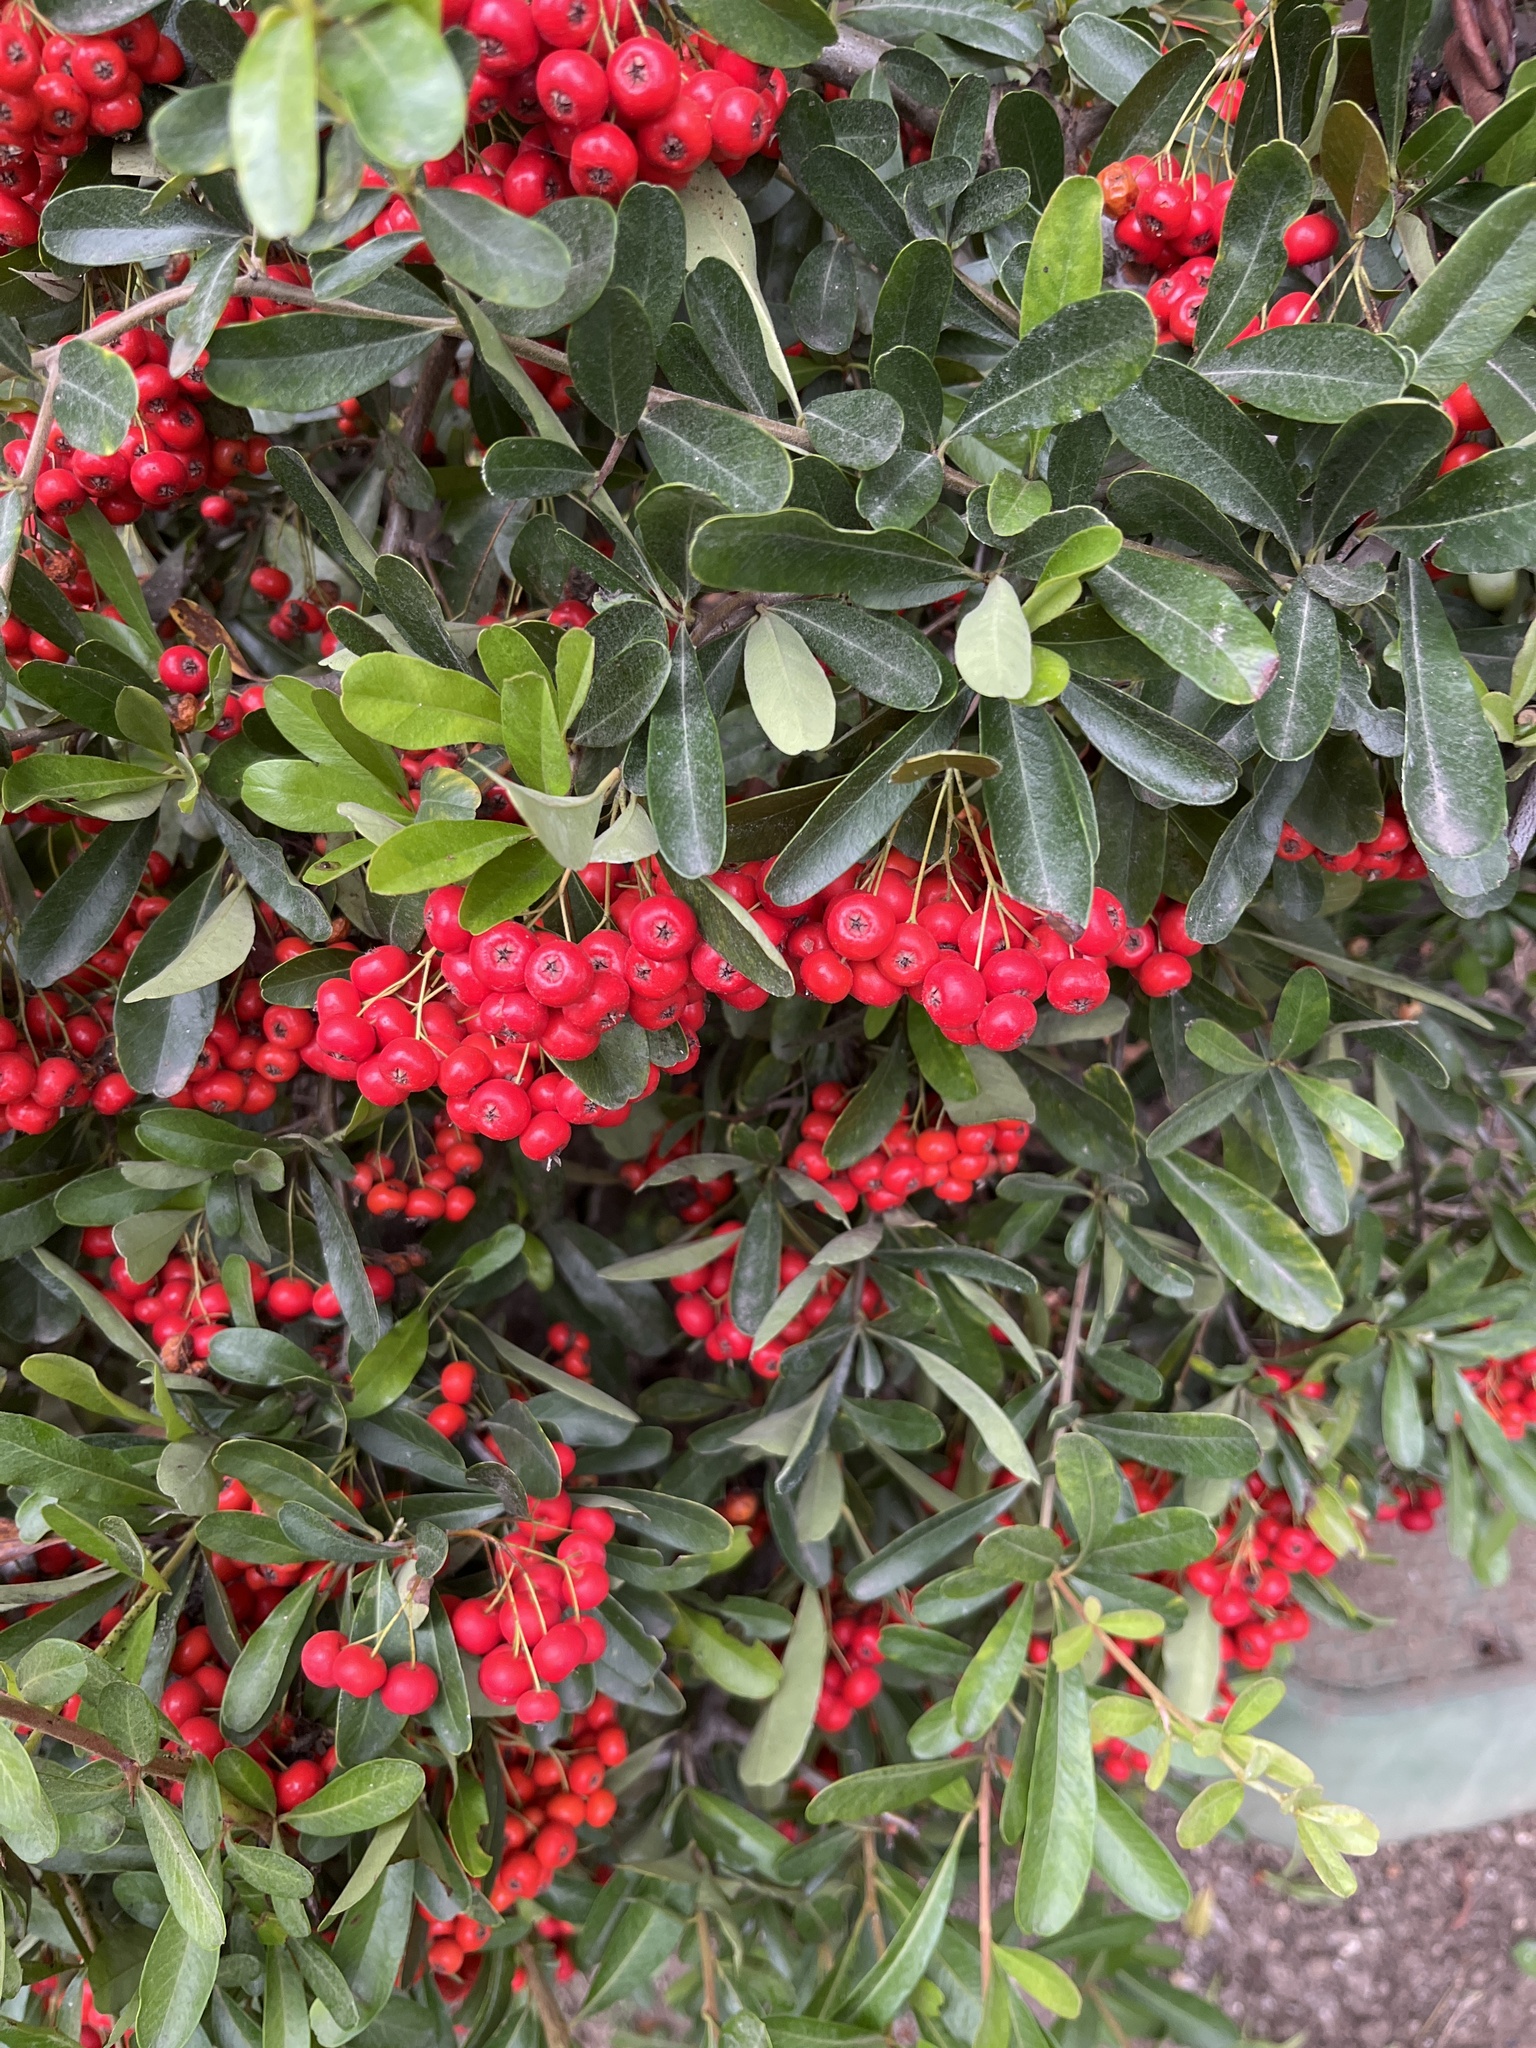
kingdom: Plantae
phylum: Tracheophyta
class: Magnoliopsida
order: Rosales
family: Rosaceae
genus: Pyracantha
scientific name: Pyracantha coccinea
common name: Firethorn
